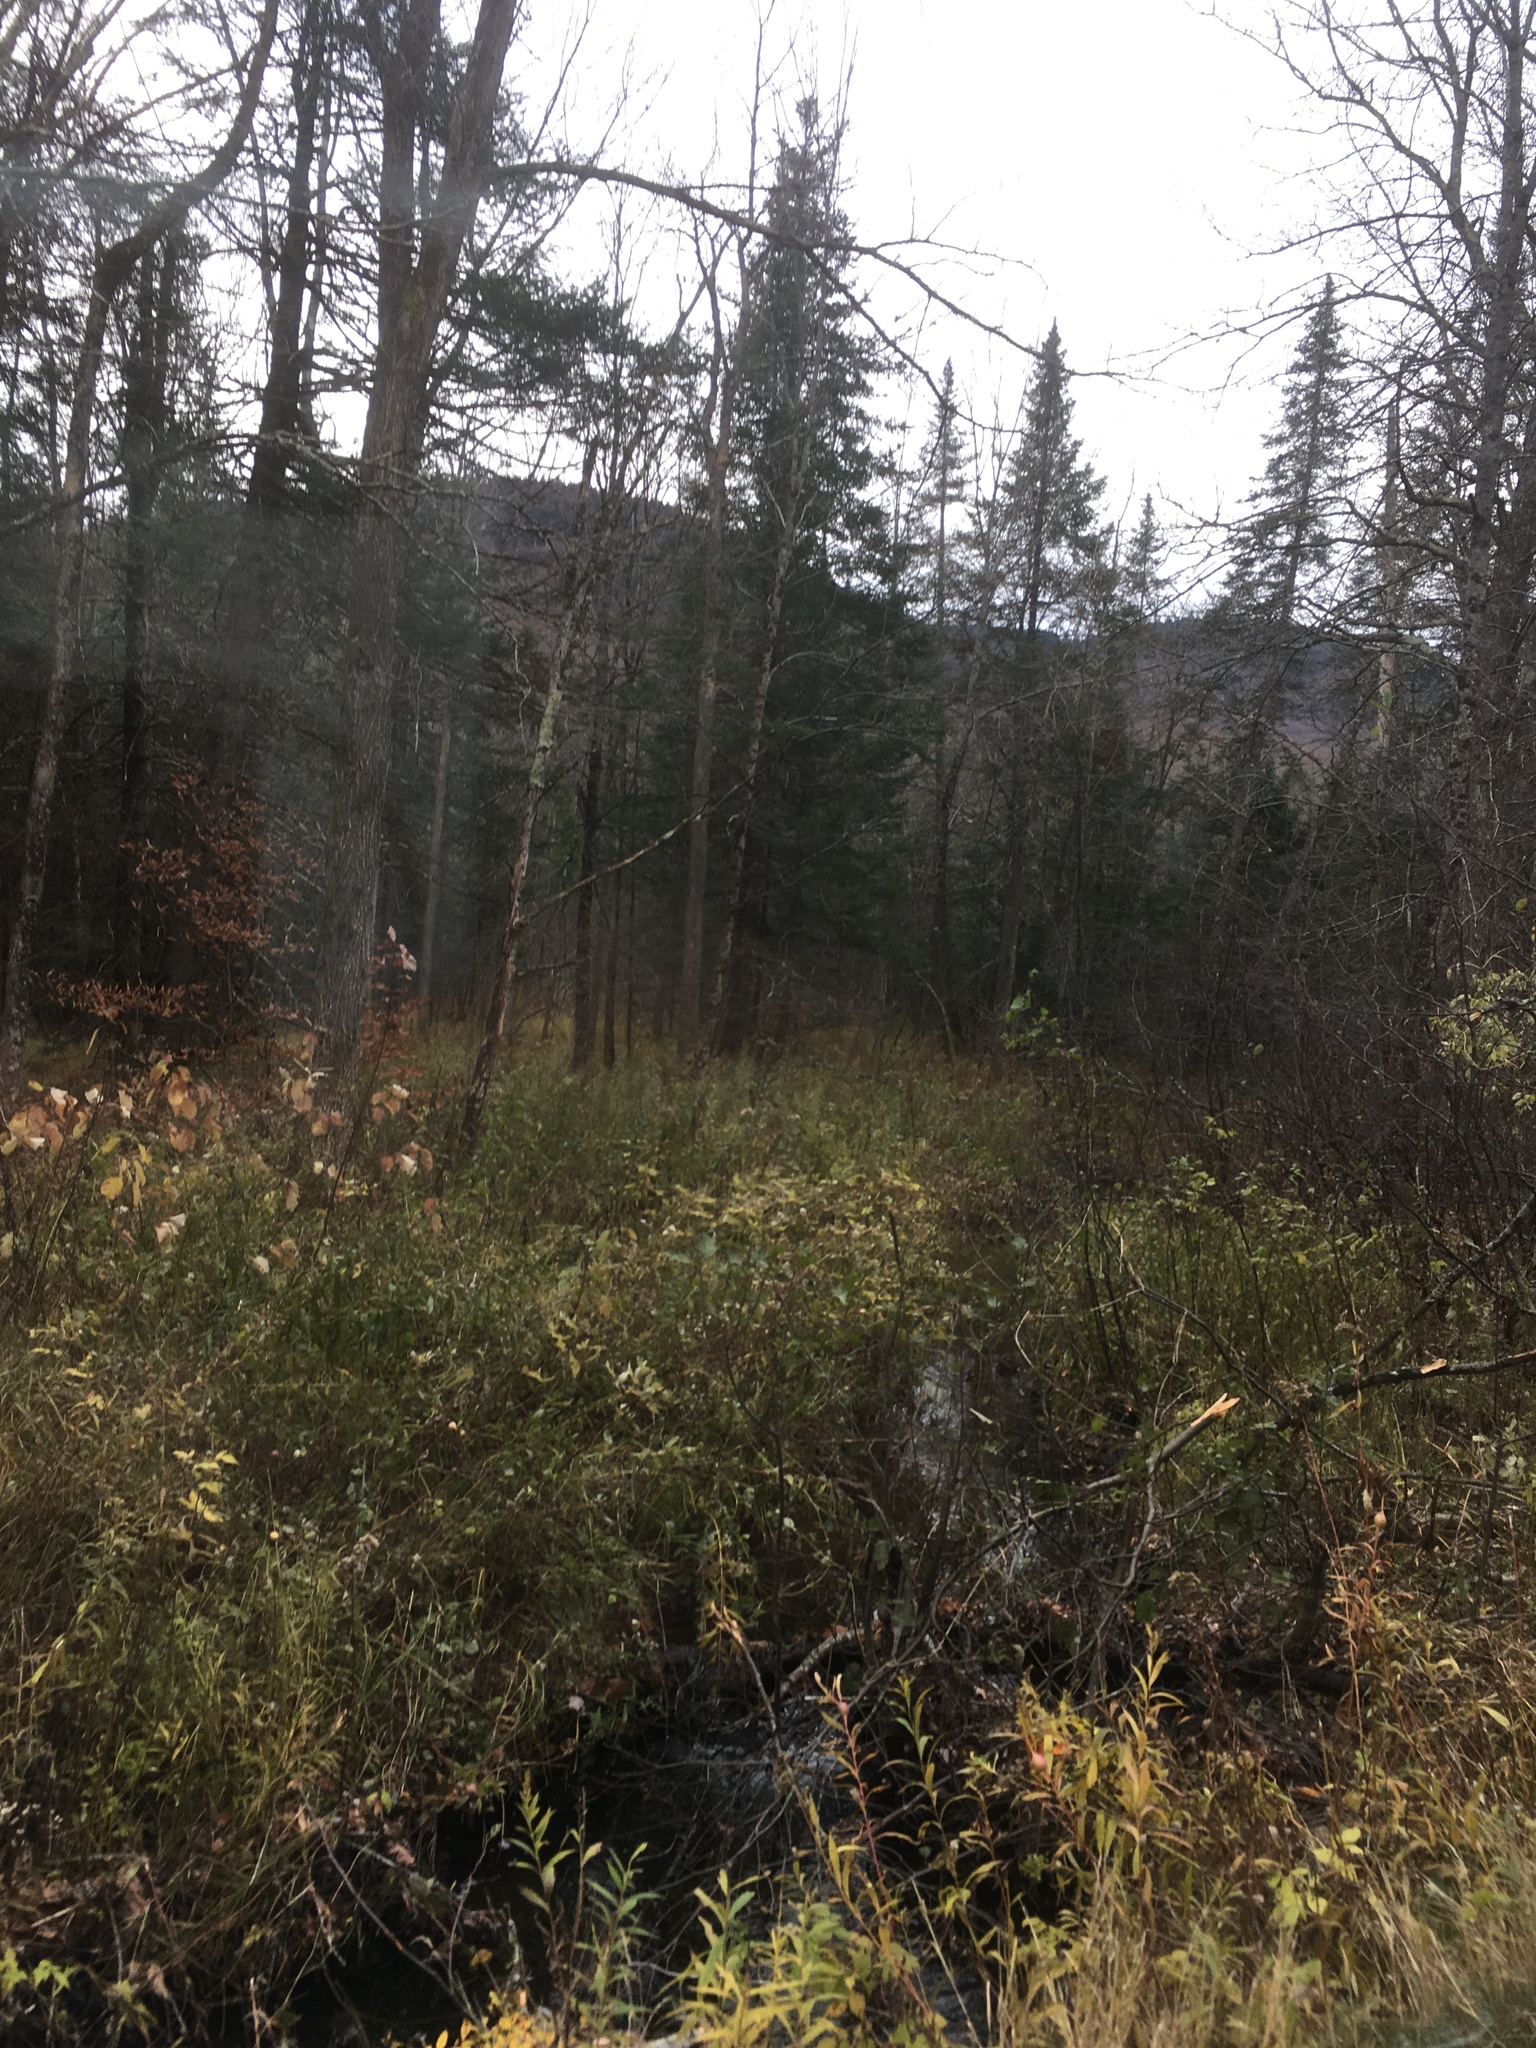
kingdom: Plantae
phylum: Tracheophyta
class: Pinopsida
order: Pinales
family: Pinaceae
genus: Abies
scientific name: Abies balsamea
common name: Balsam fir
